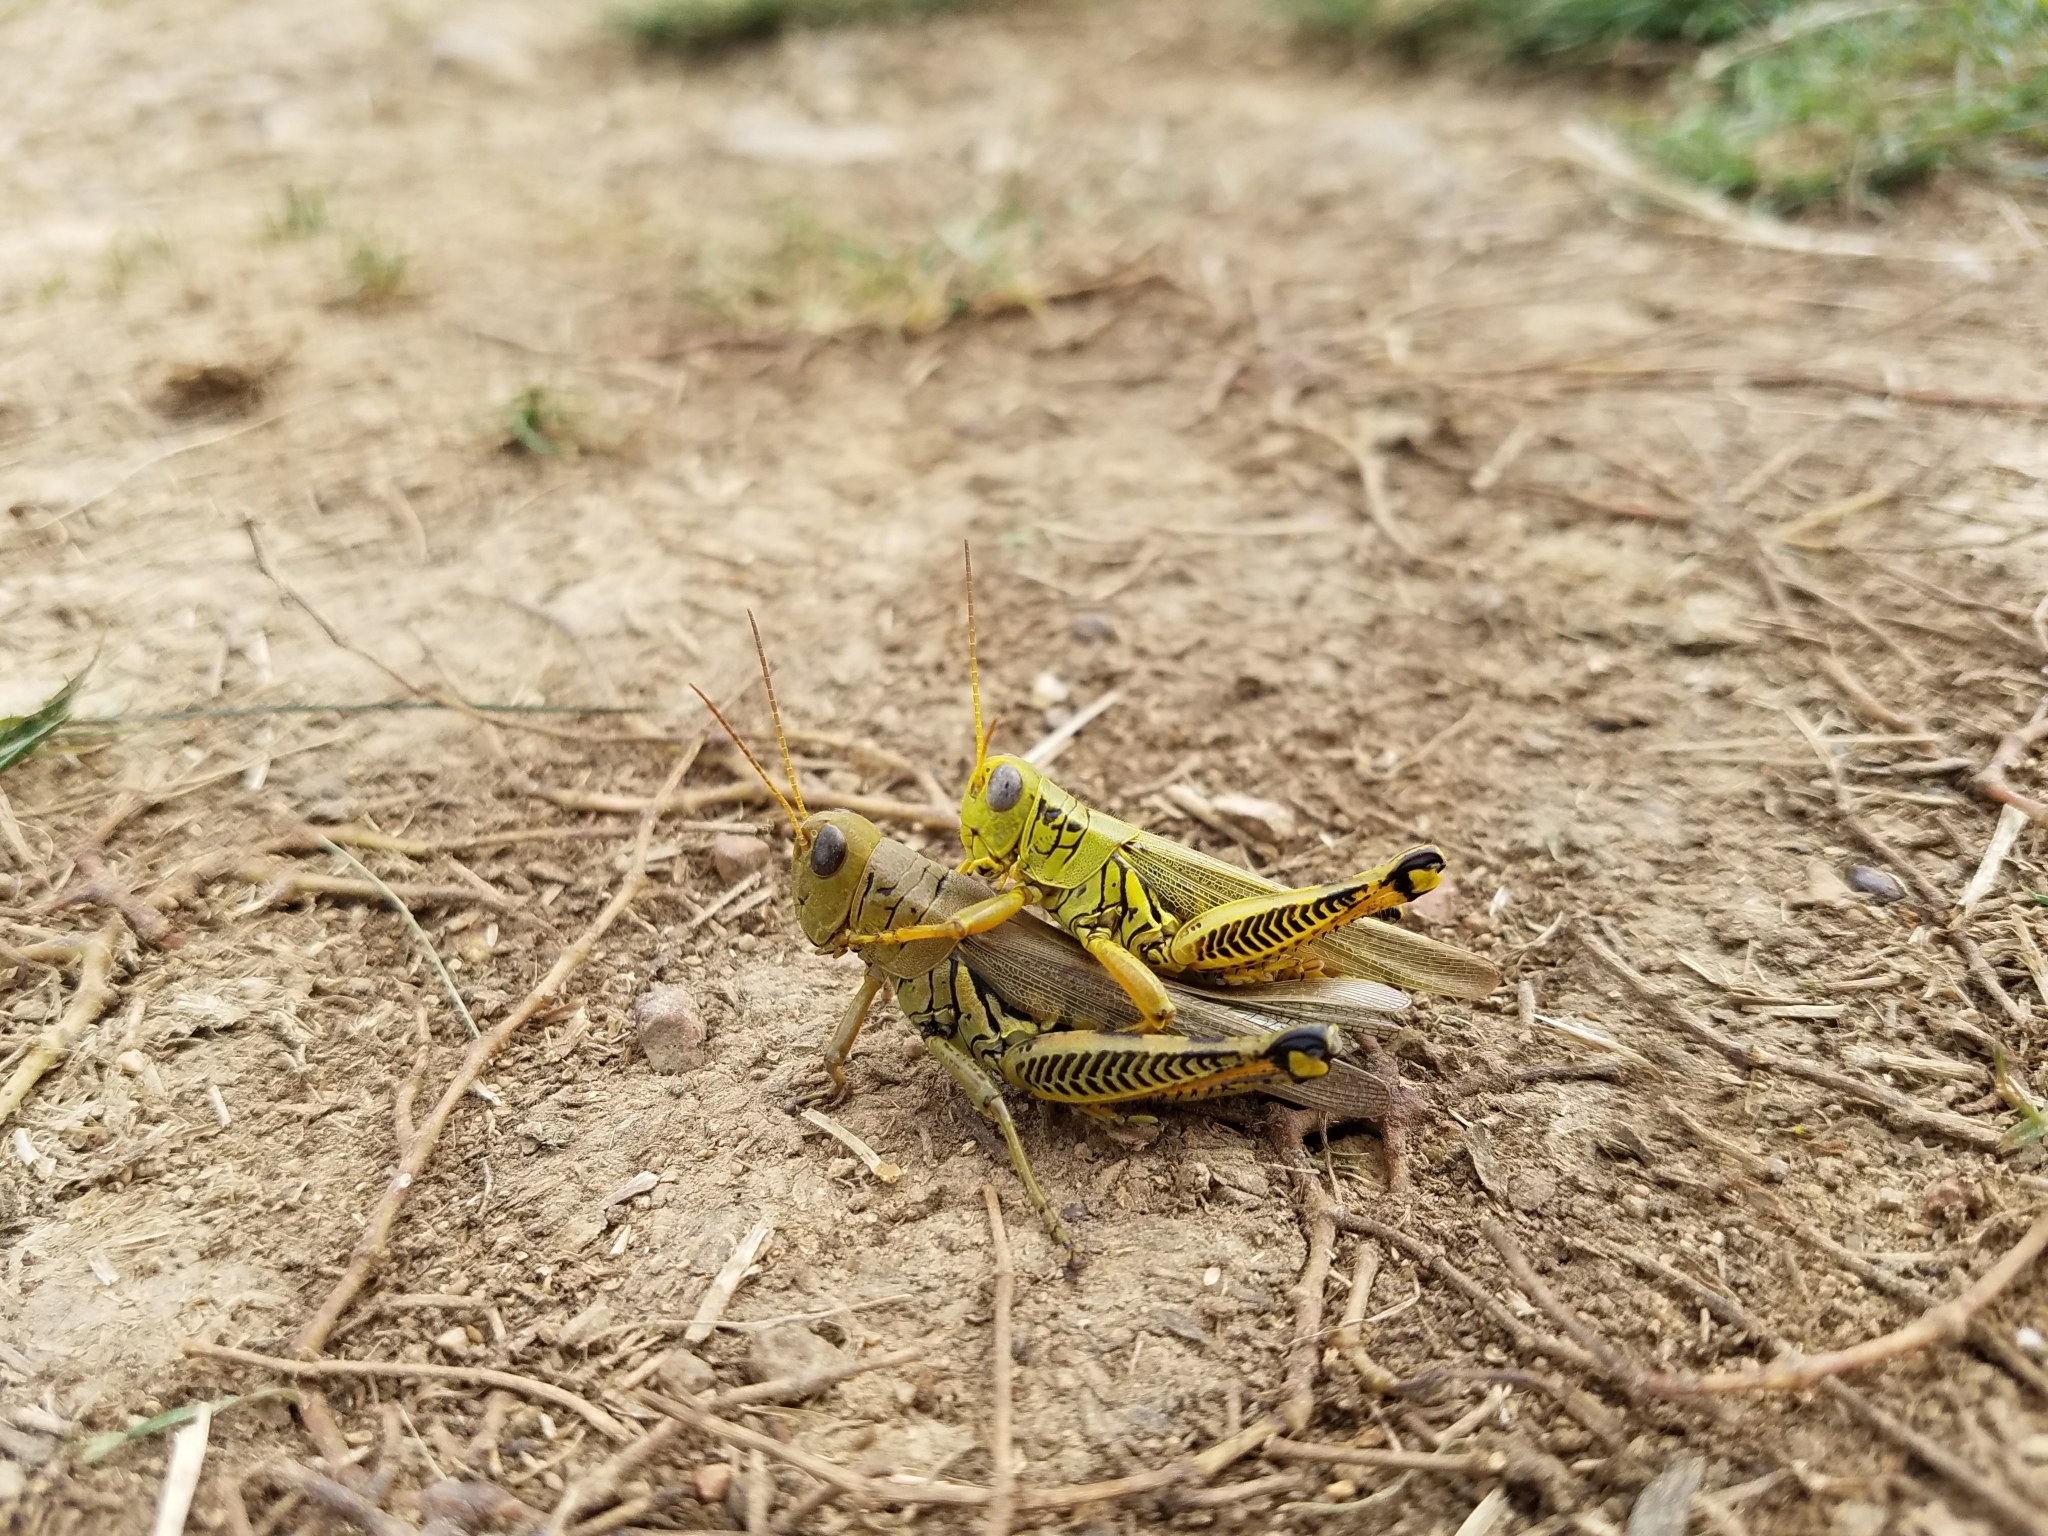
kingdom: Animalia
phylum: Arthropoda
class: Insecta
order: Orthoptera
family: Acrididae
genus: Melanoplus
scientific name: Melanoplus differentialis
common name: Differential grasshopper
